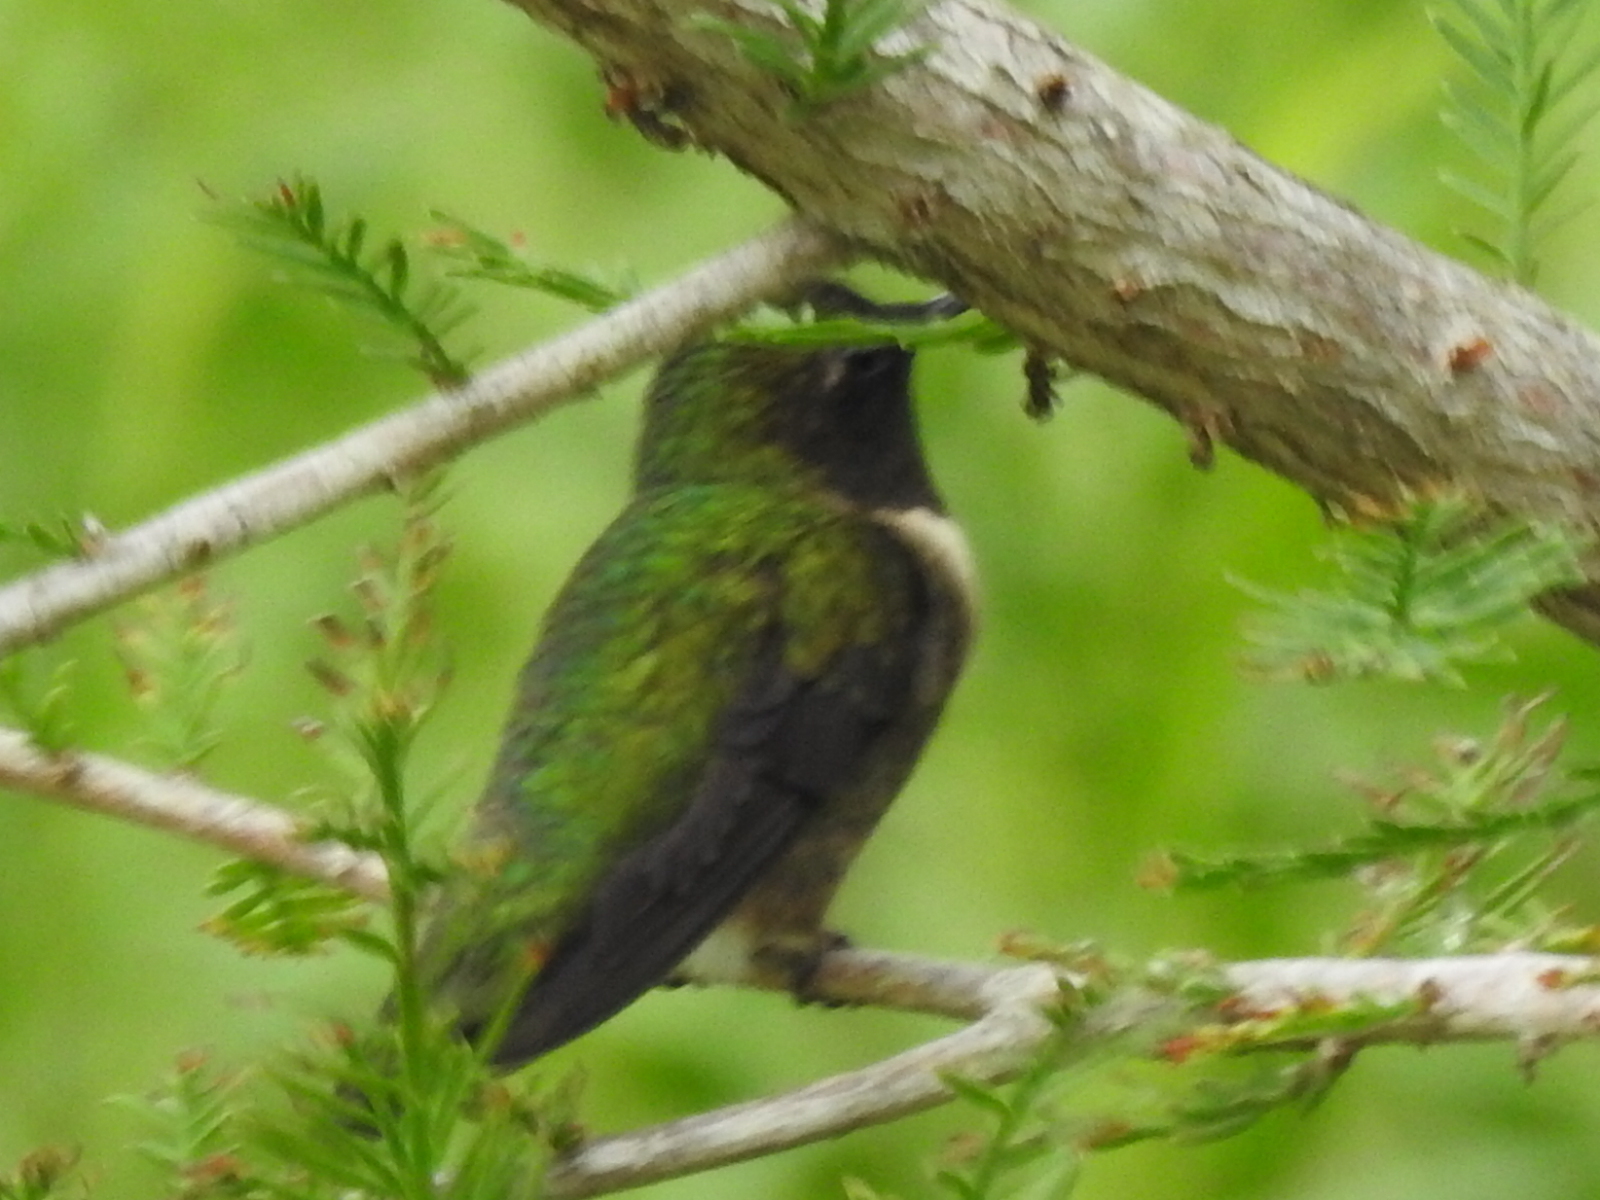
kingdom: Animalia
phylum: Chordata
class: Aves
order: Apodiformes
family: Trochilidae
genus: Archilochus
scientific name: Archilochus colubris
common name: Ruby-throated hummingbird
